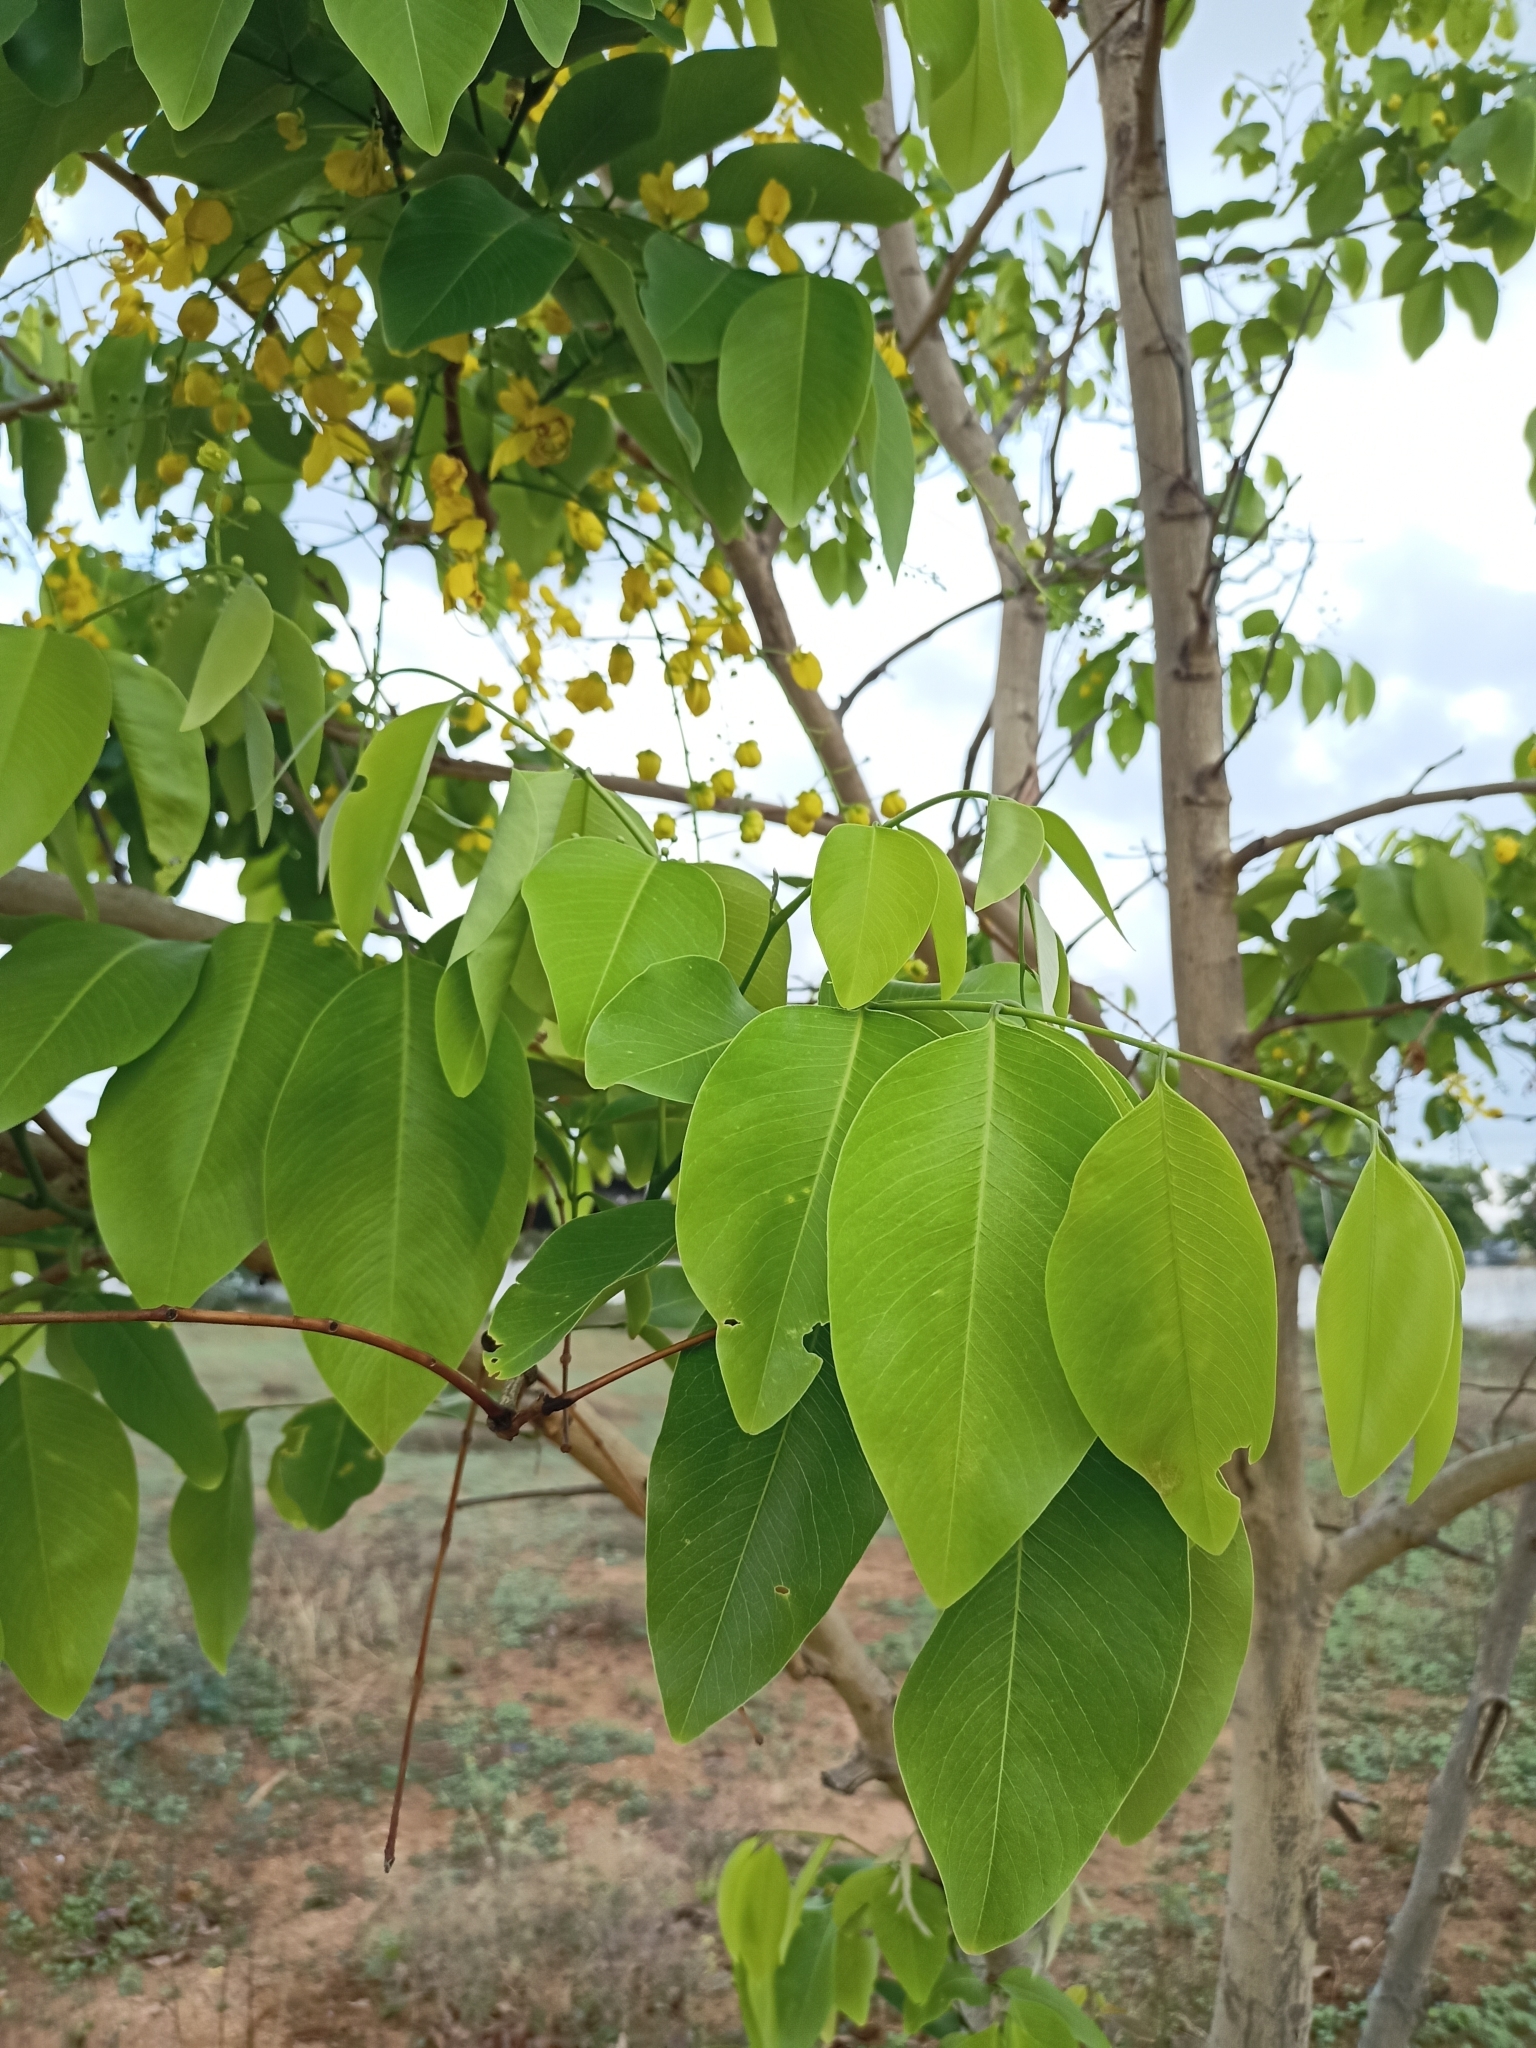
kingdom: Plantae
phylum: Tracheophyta
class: Magnoliopsida
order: Fabales
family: Fabaceae
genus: Cassia
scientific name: Cassia fistula
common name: Golden shower
